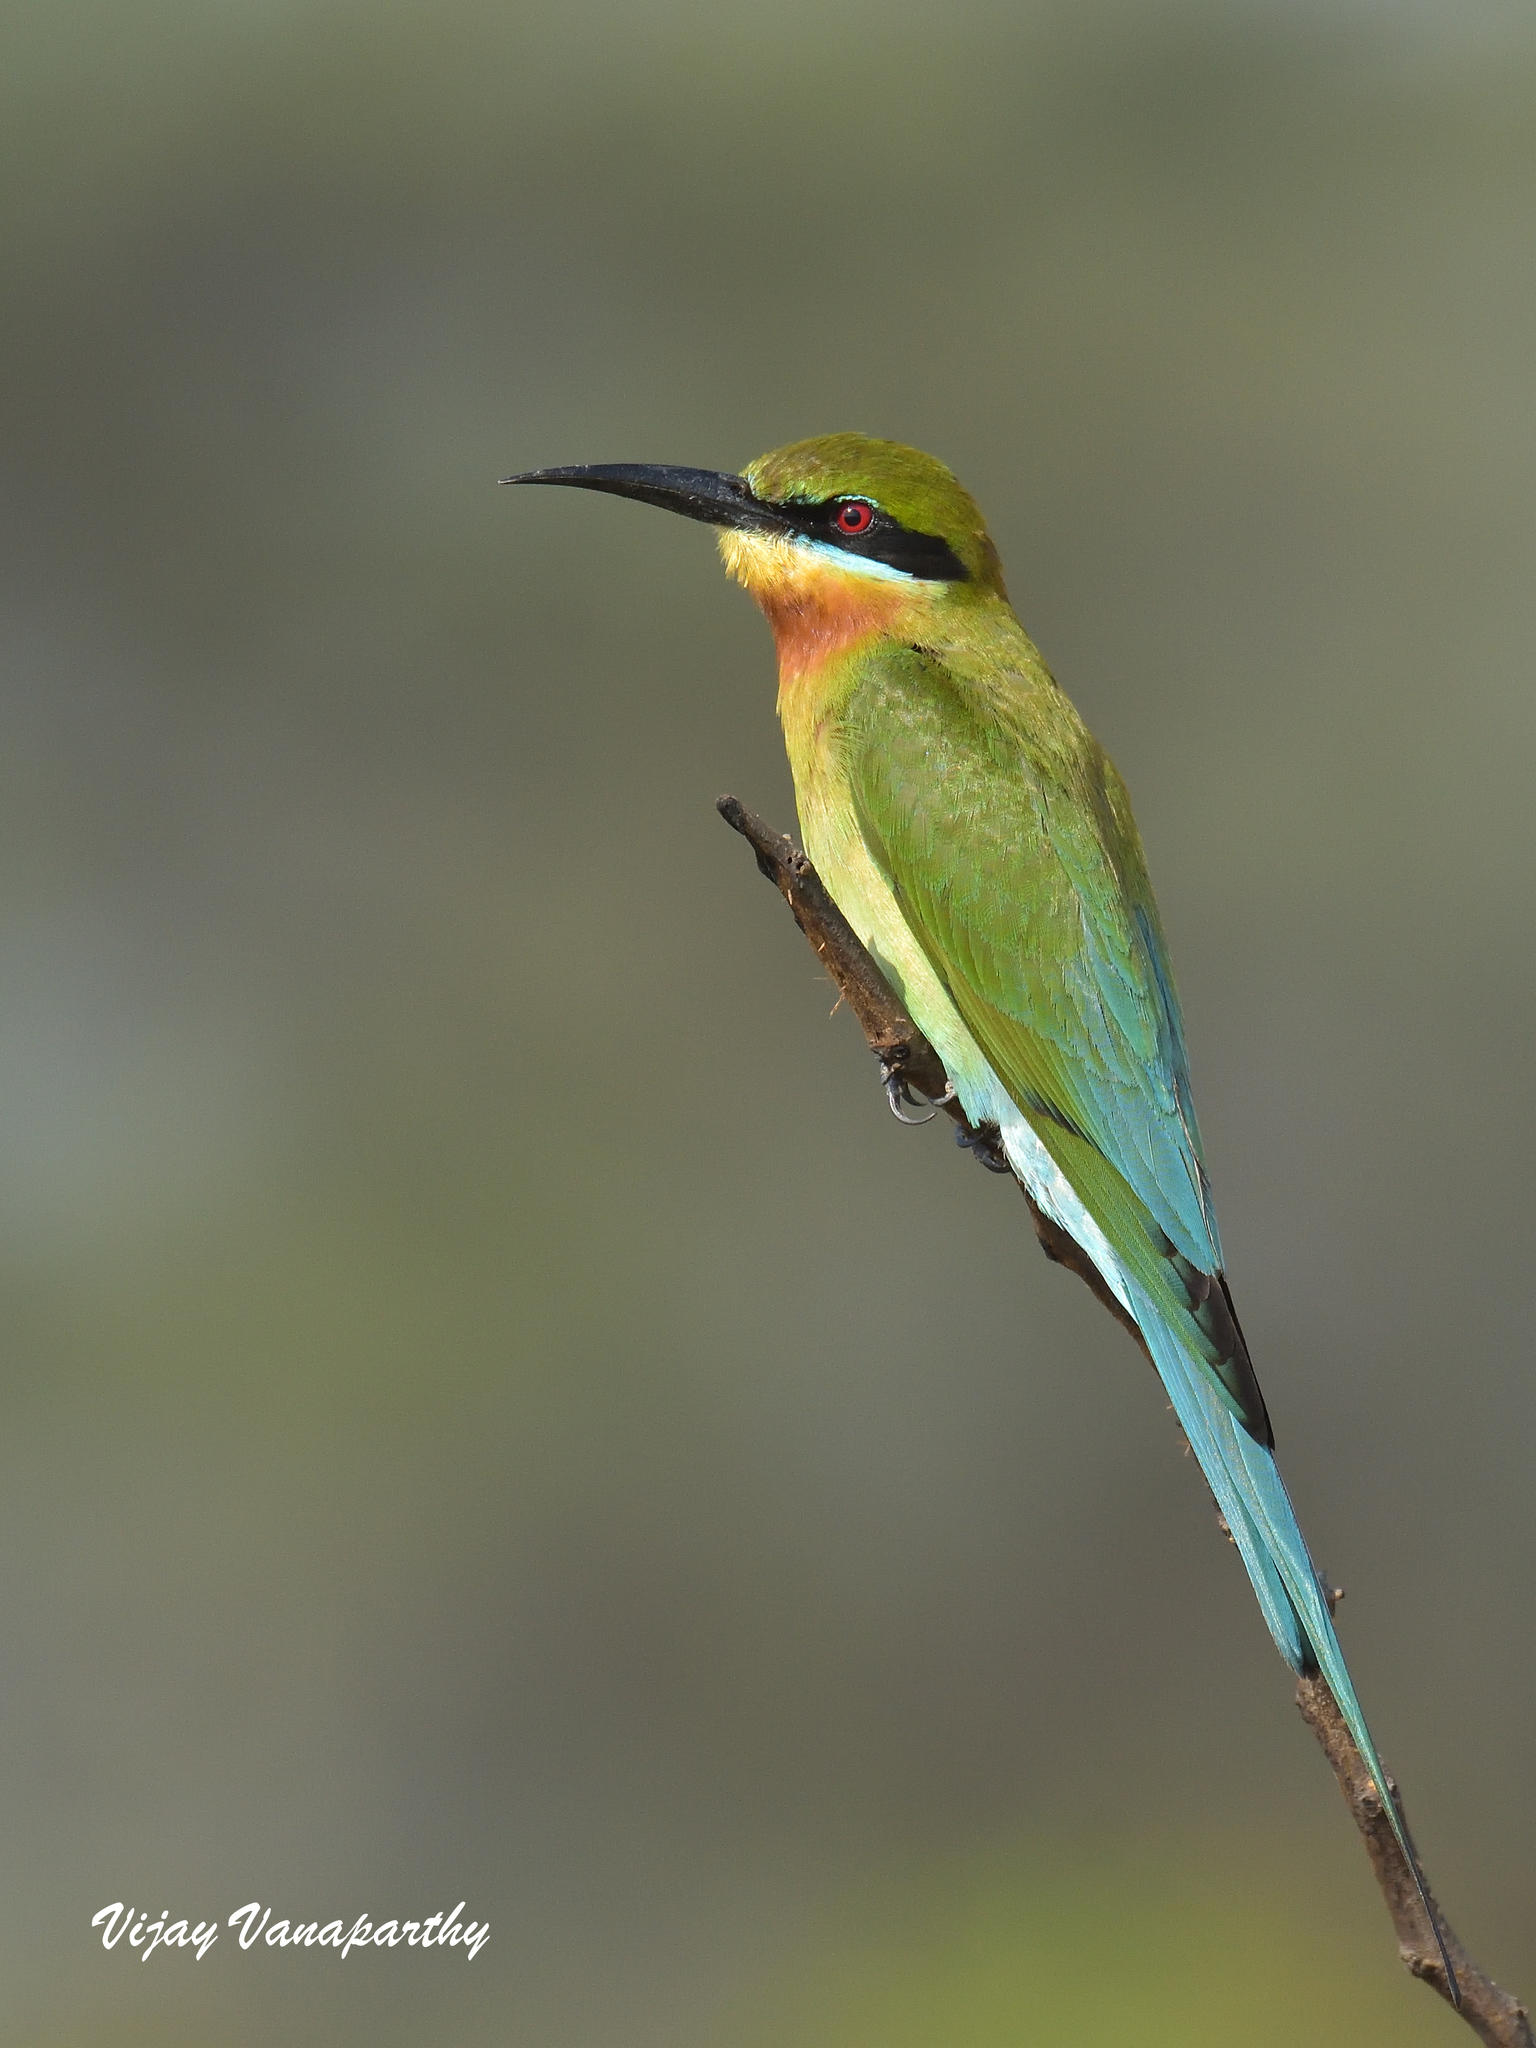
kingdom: Animalia
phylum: Chordata
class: Aves
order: Coraciiformes
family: Meropidae
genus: Merops
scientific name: Merops philippinus
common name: Blue-tailed bee-eater
